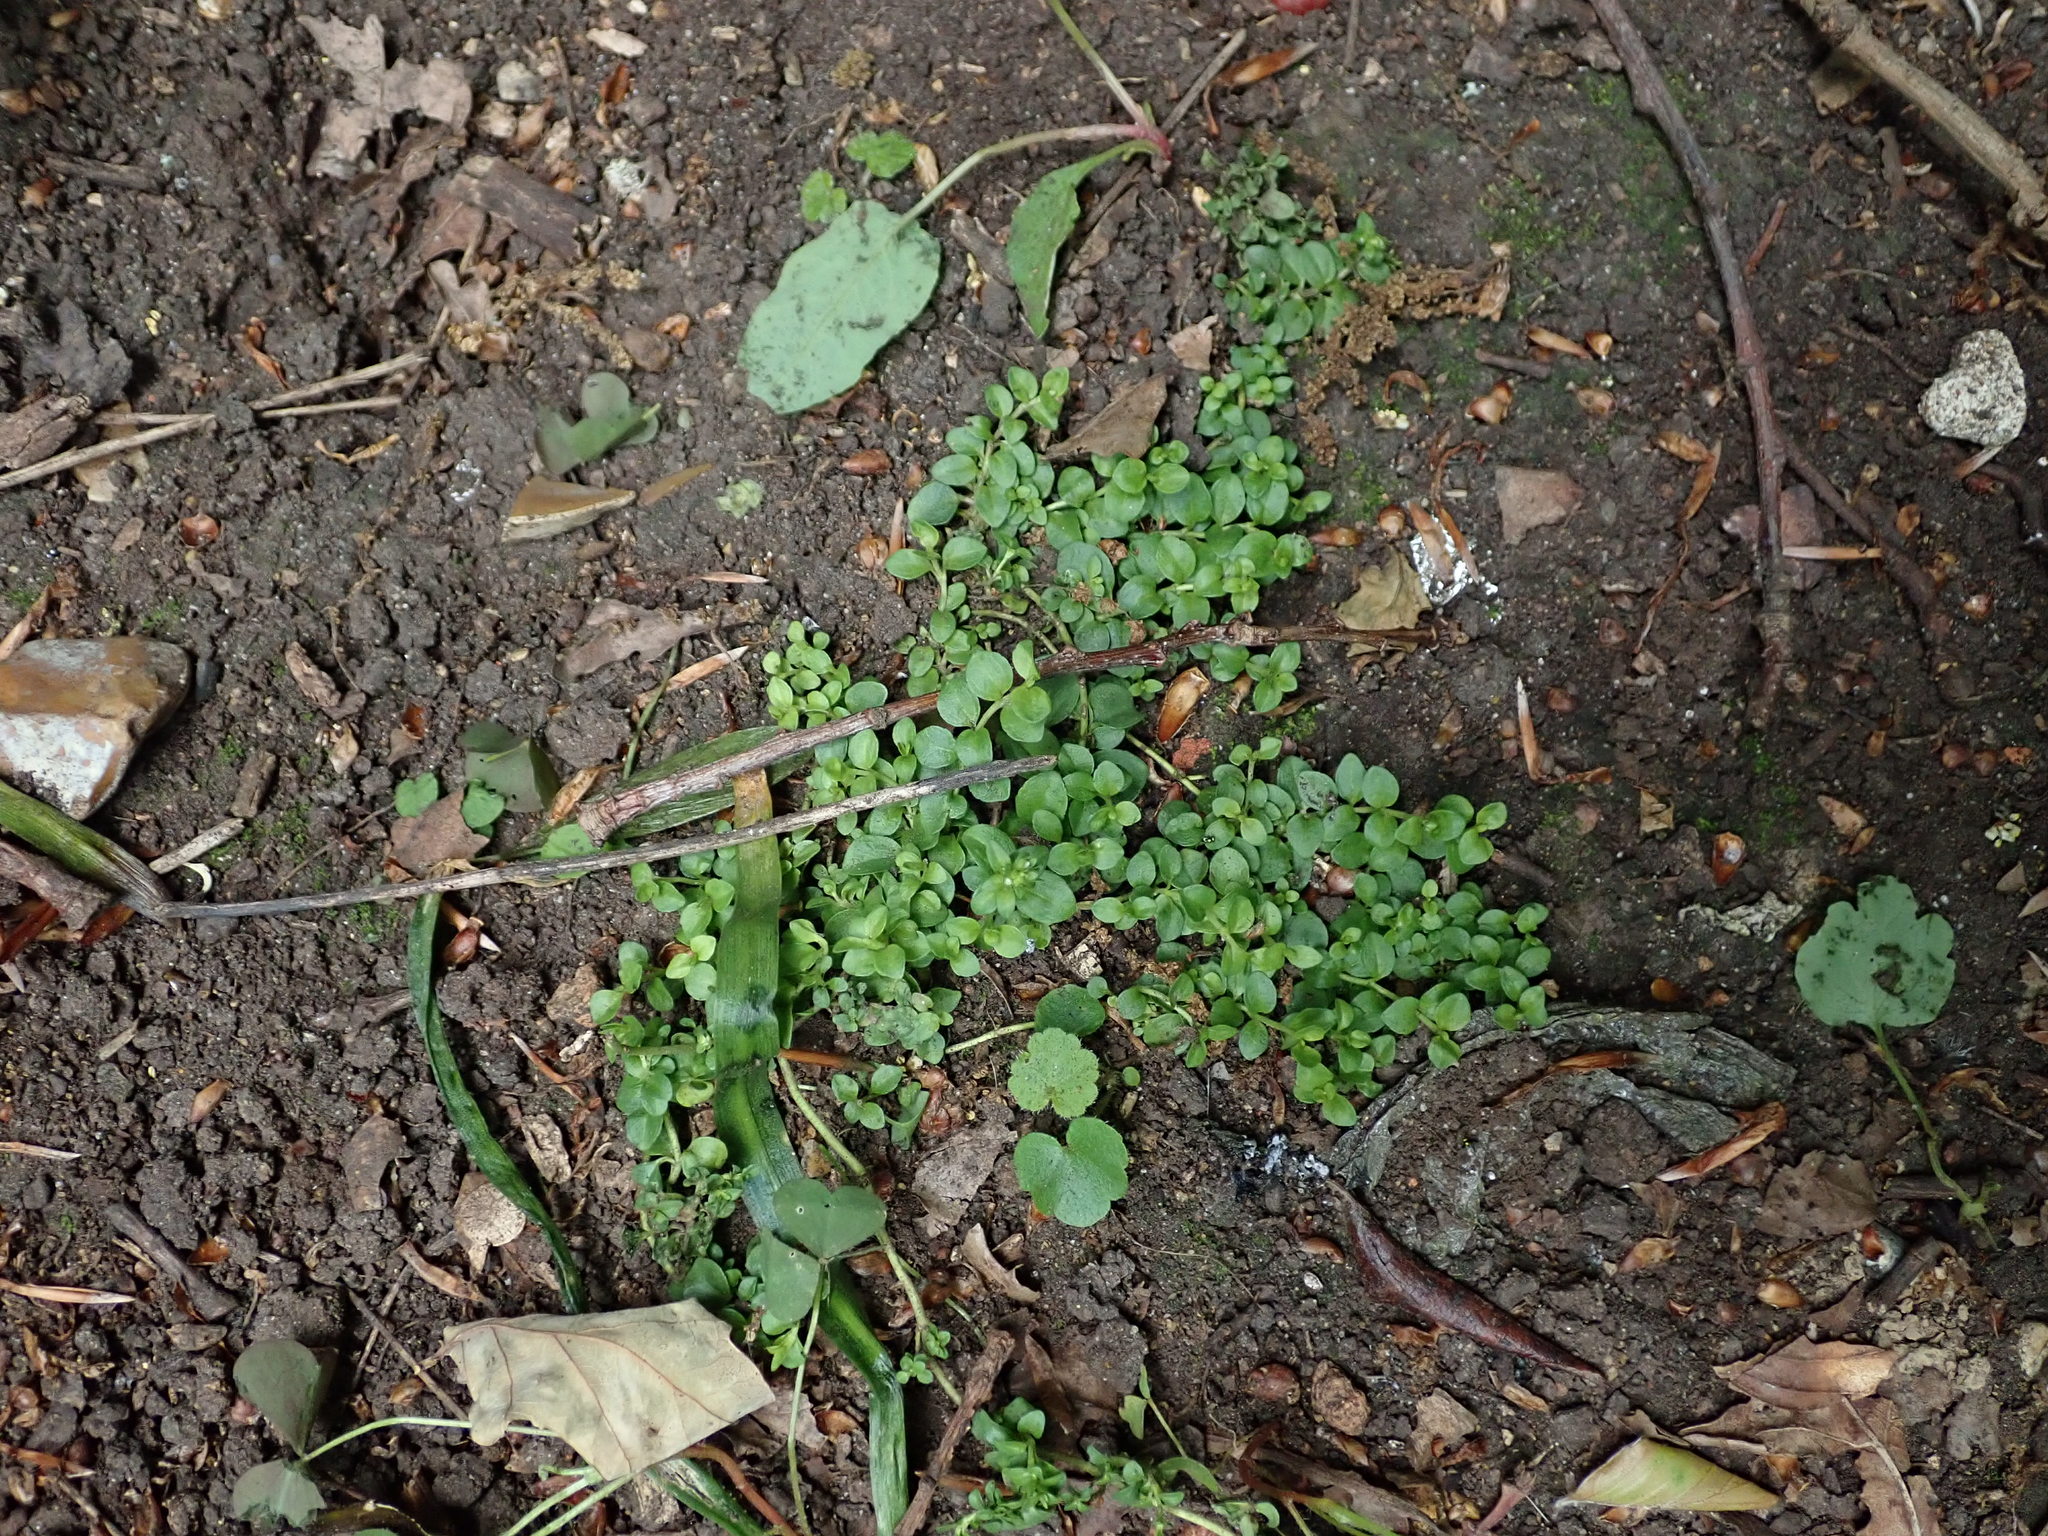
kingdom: Plantae
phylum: Tracheophyta
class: Magnoliopsida
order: Lamiales
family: Plantaginaceae
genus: Veronica
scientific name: Veronica serpyllifolia
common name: Thyme-leaved speedwell
